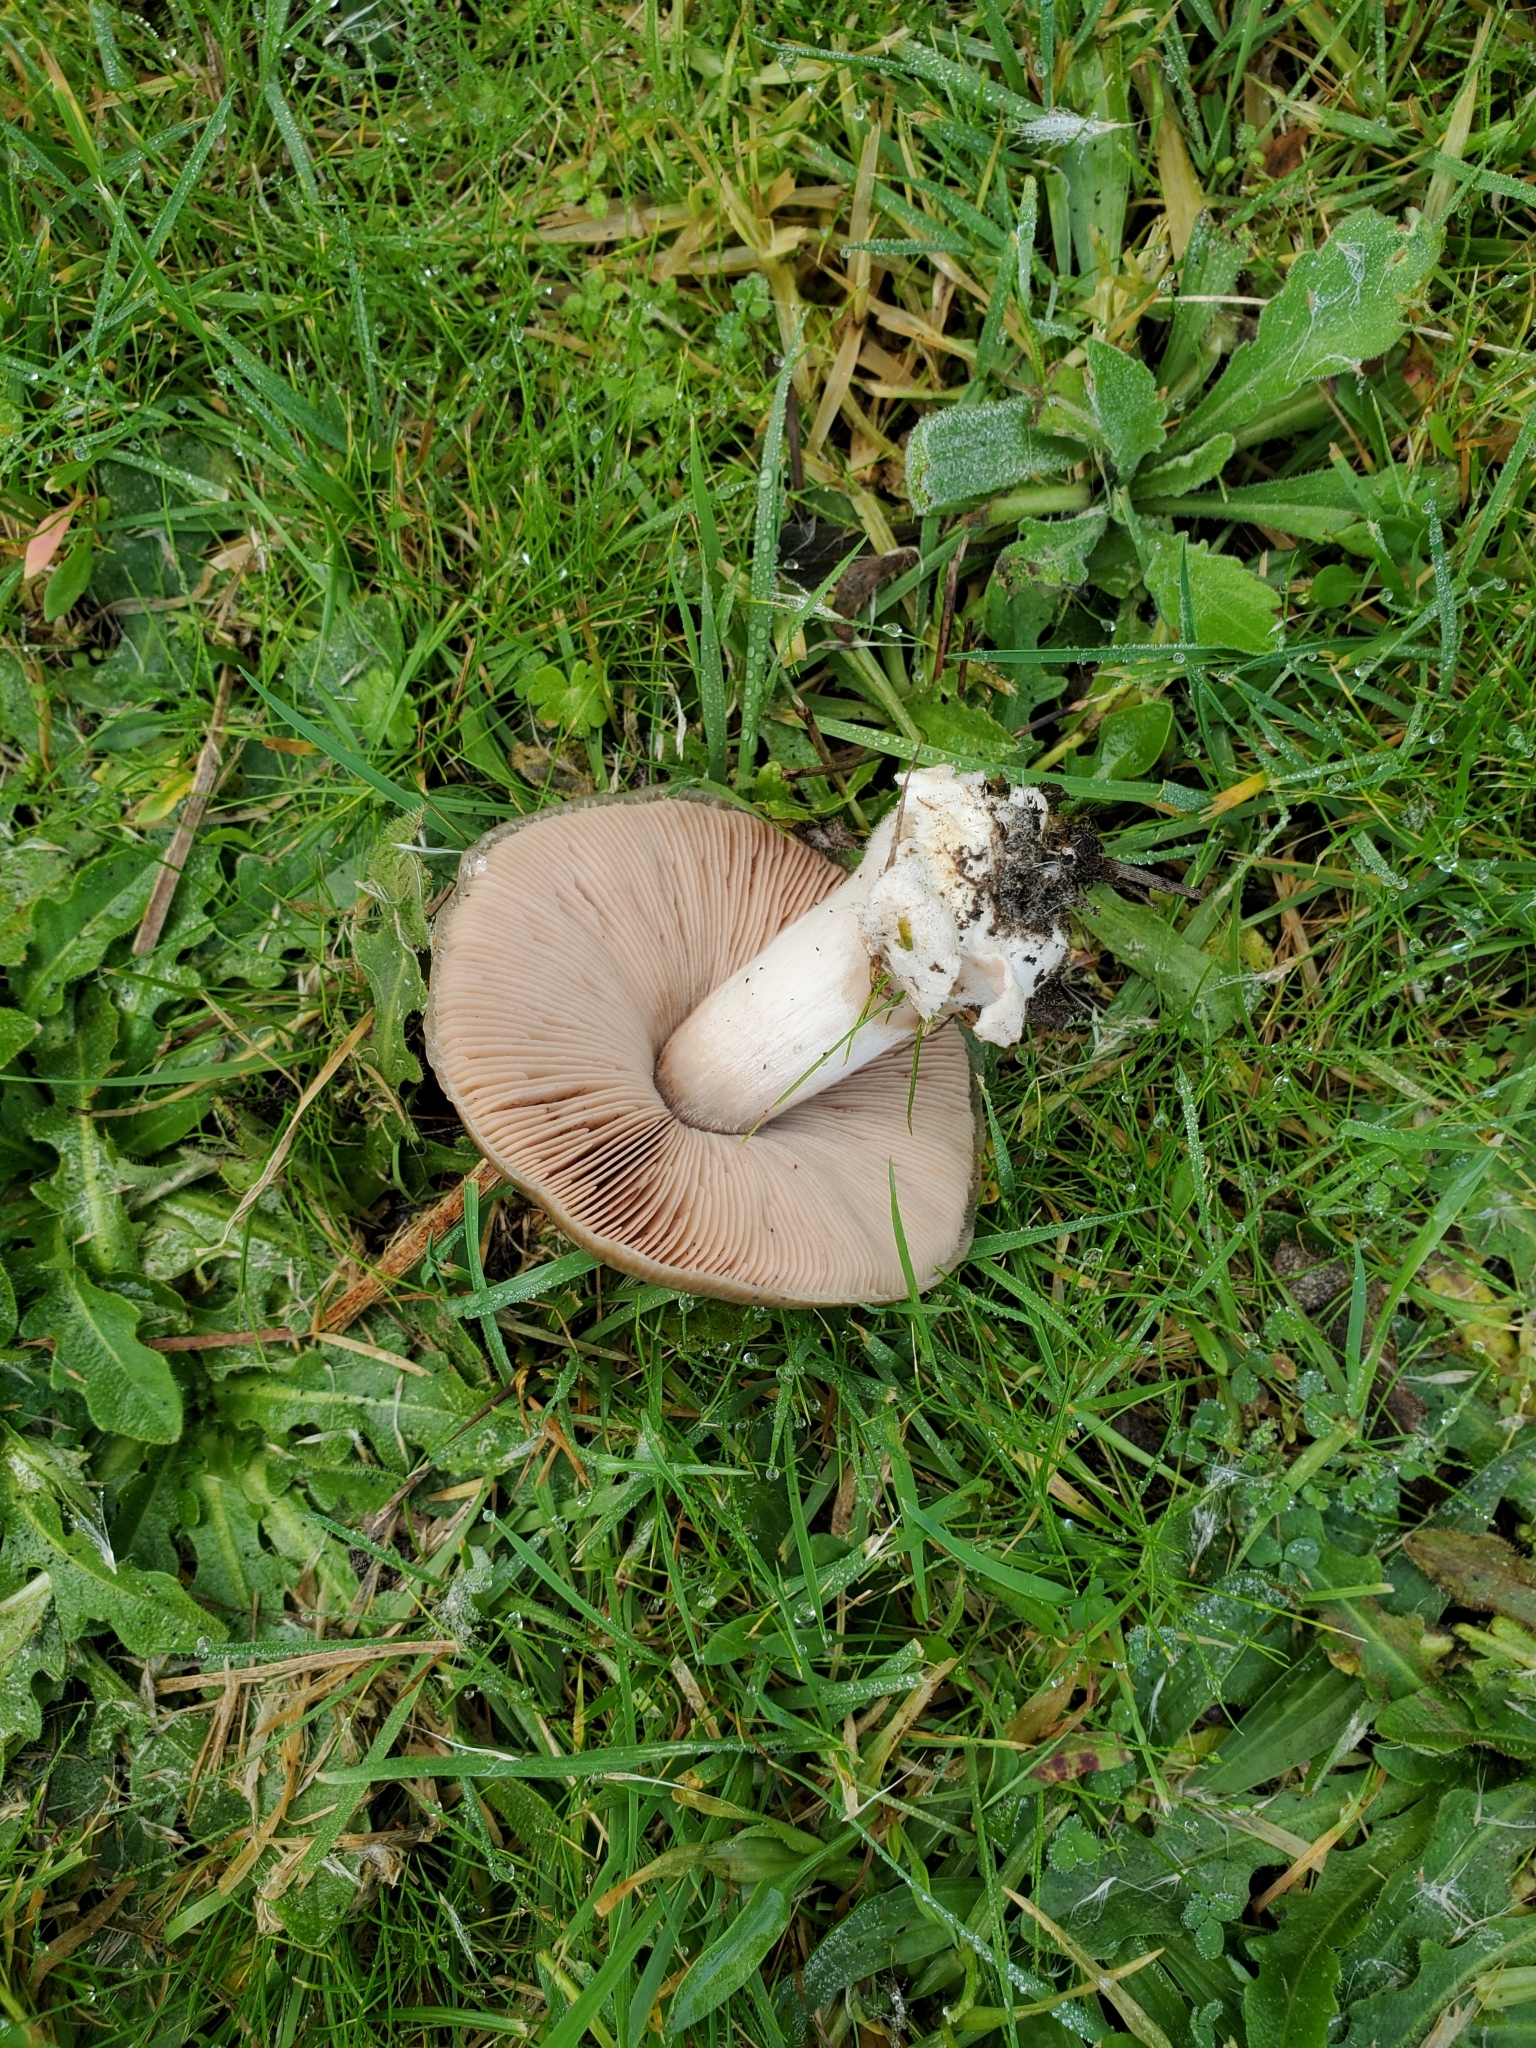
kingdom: Fungi
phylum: Basidiomycota
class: Agaricomycetes
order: Agaricales
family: Pluteaceae
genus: Volvopluteus
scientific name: Volvopluteus gloiocephalus
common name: Stubble rosegill
